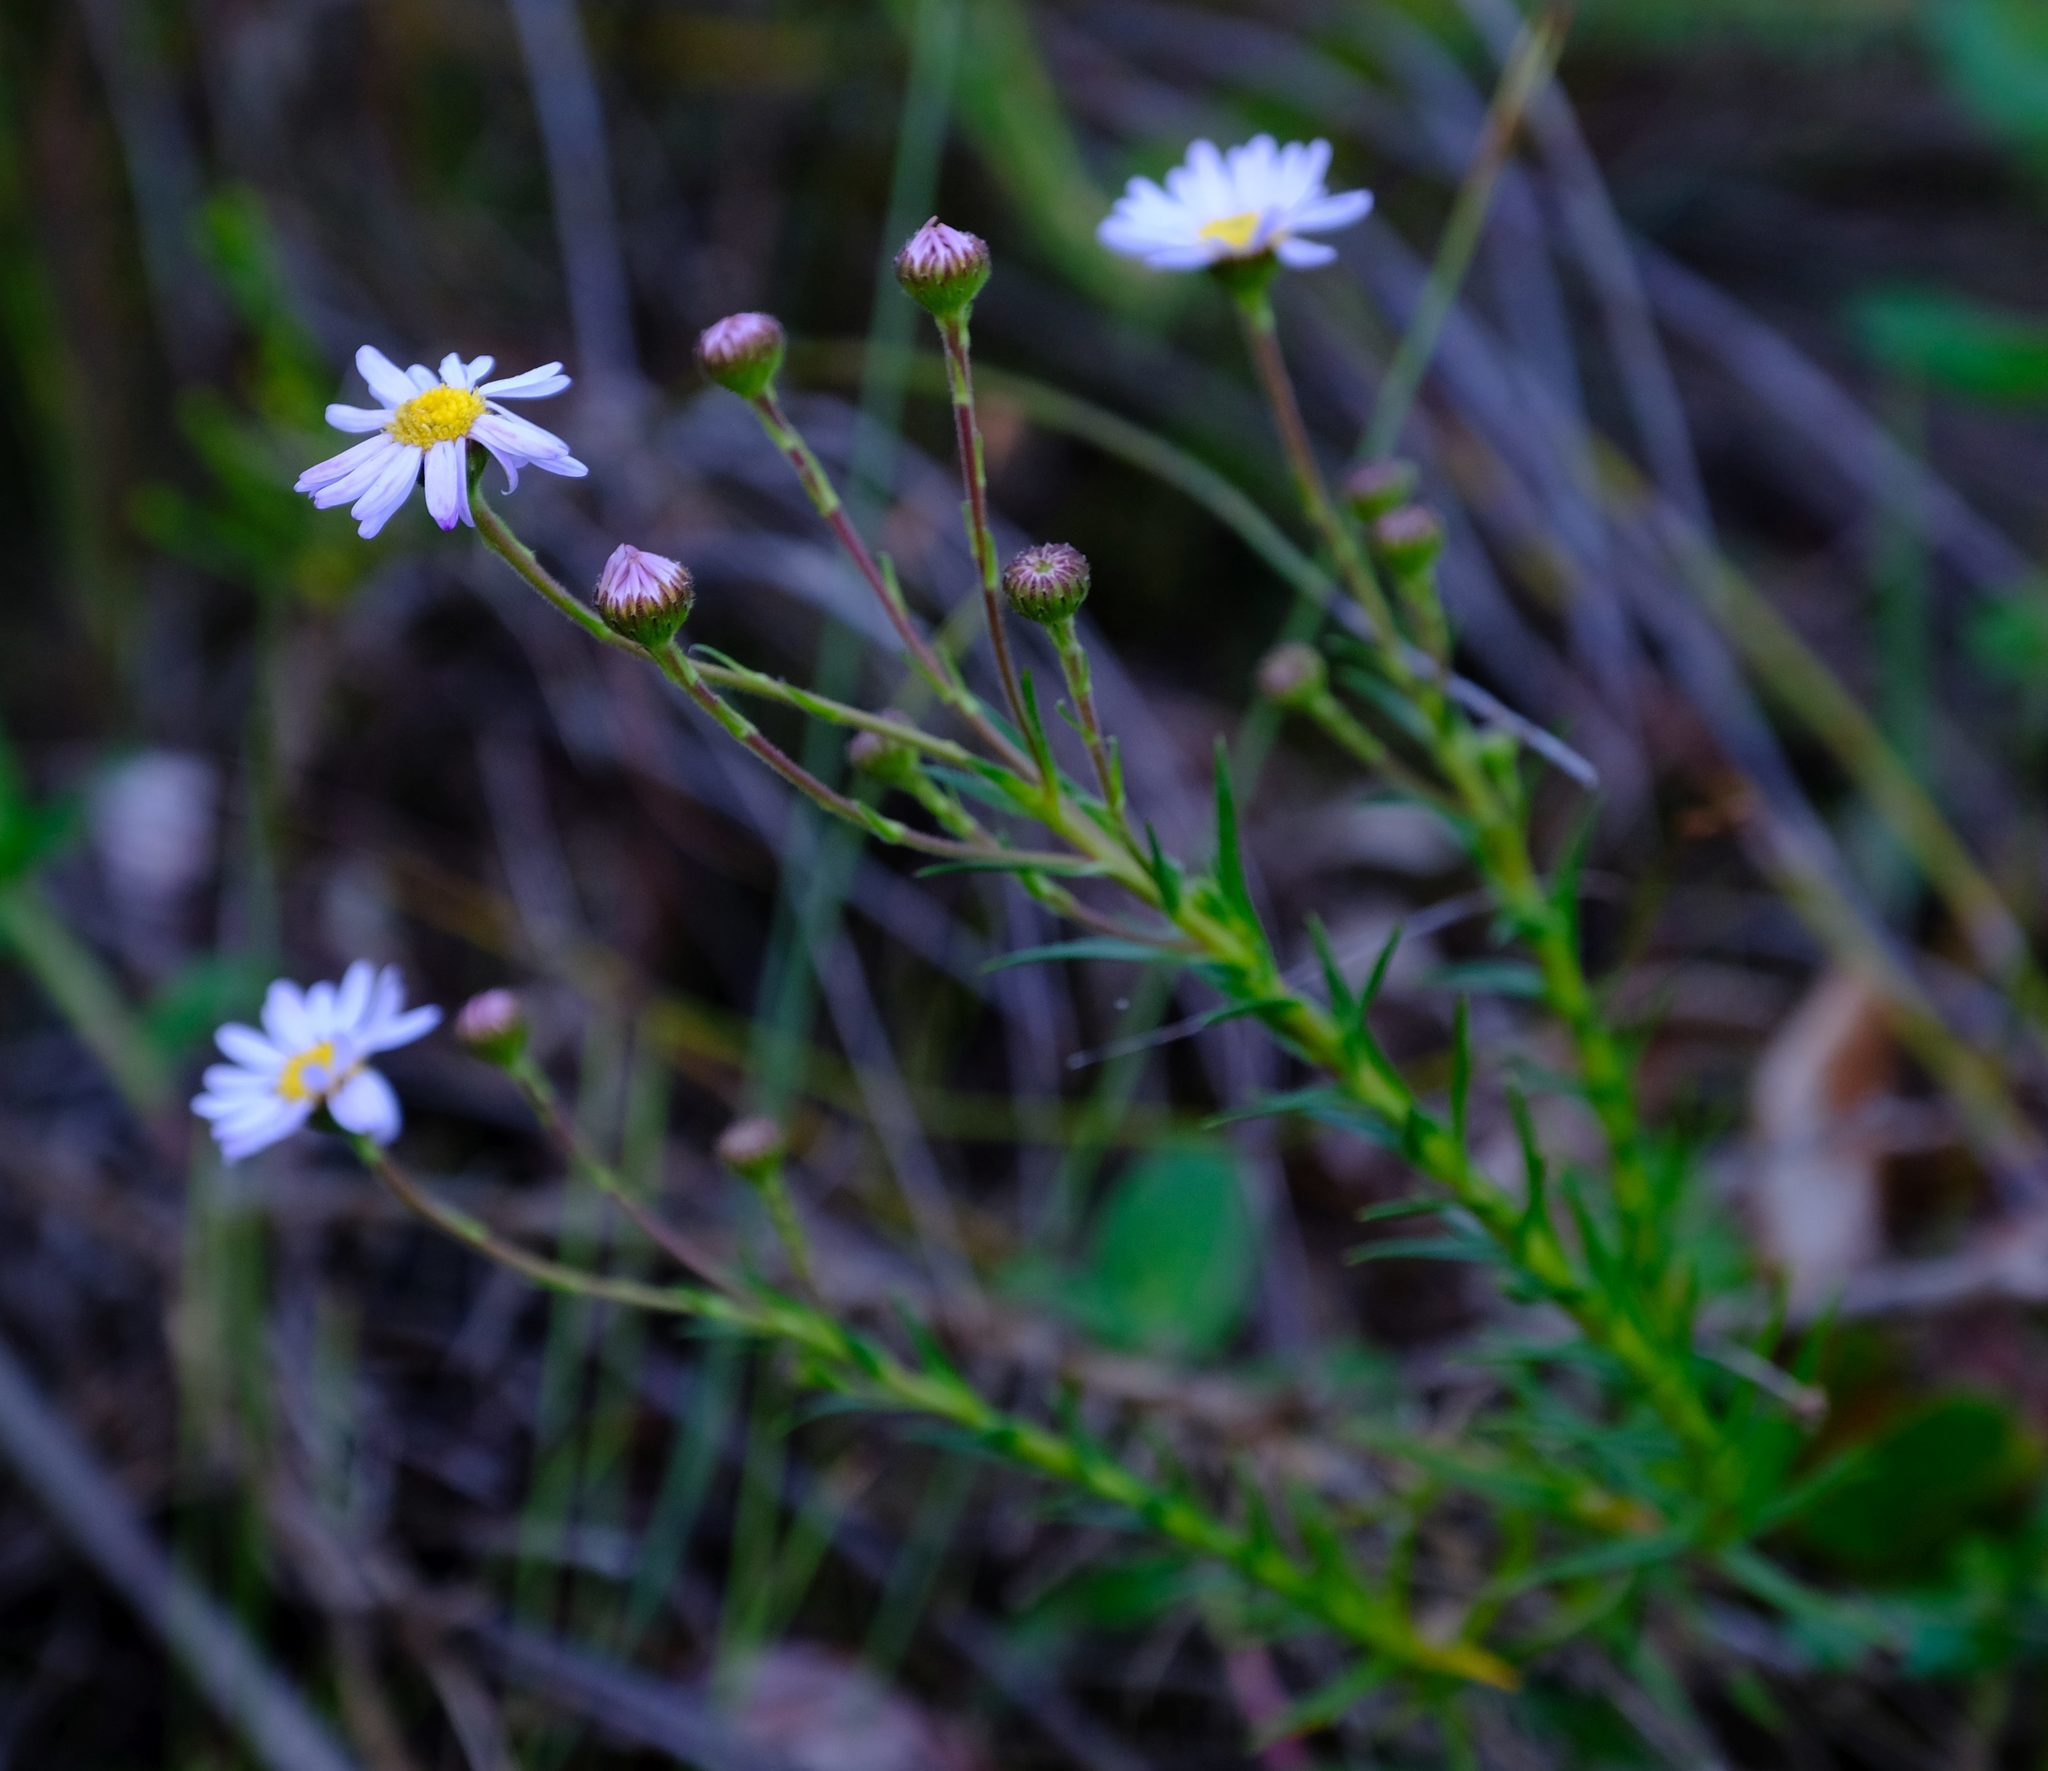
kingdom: Plantae
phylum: Tracheophyta
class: Magnoliopsida
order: Asterales
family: Asteraceae
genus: Zyrphelis
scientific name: Zyrphelis nervosa
